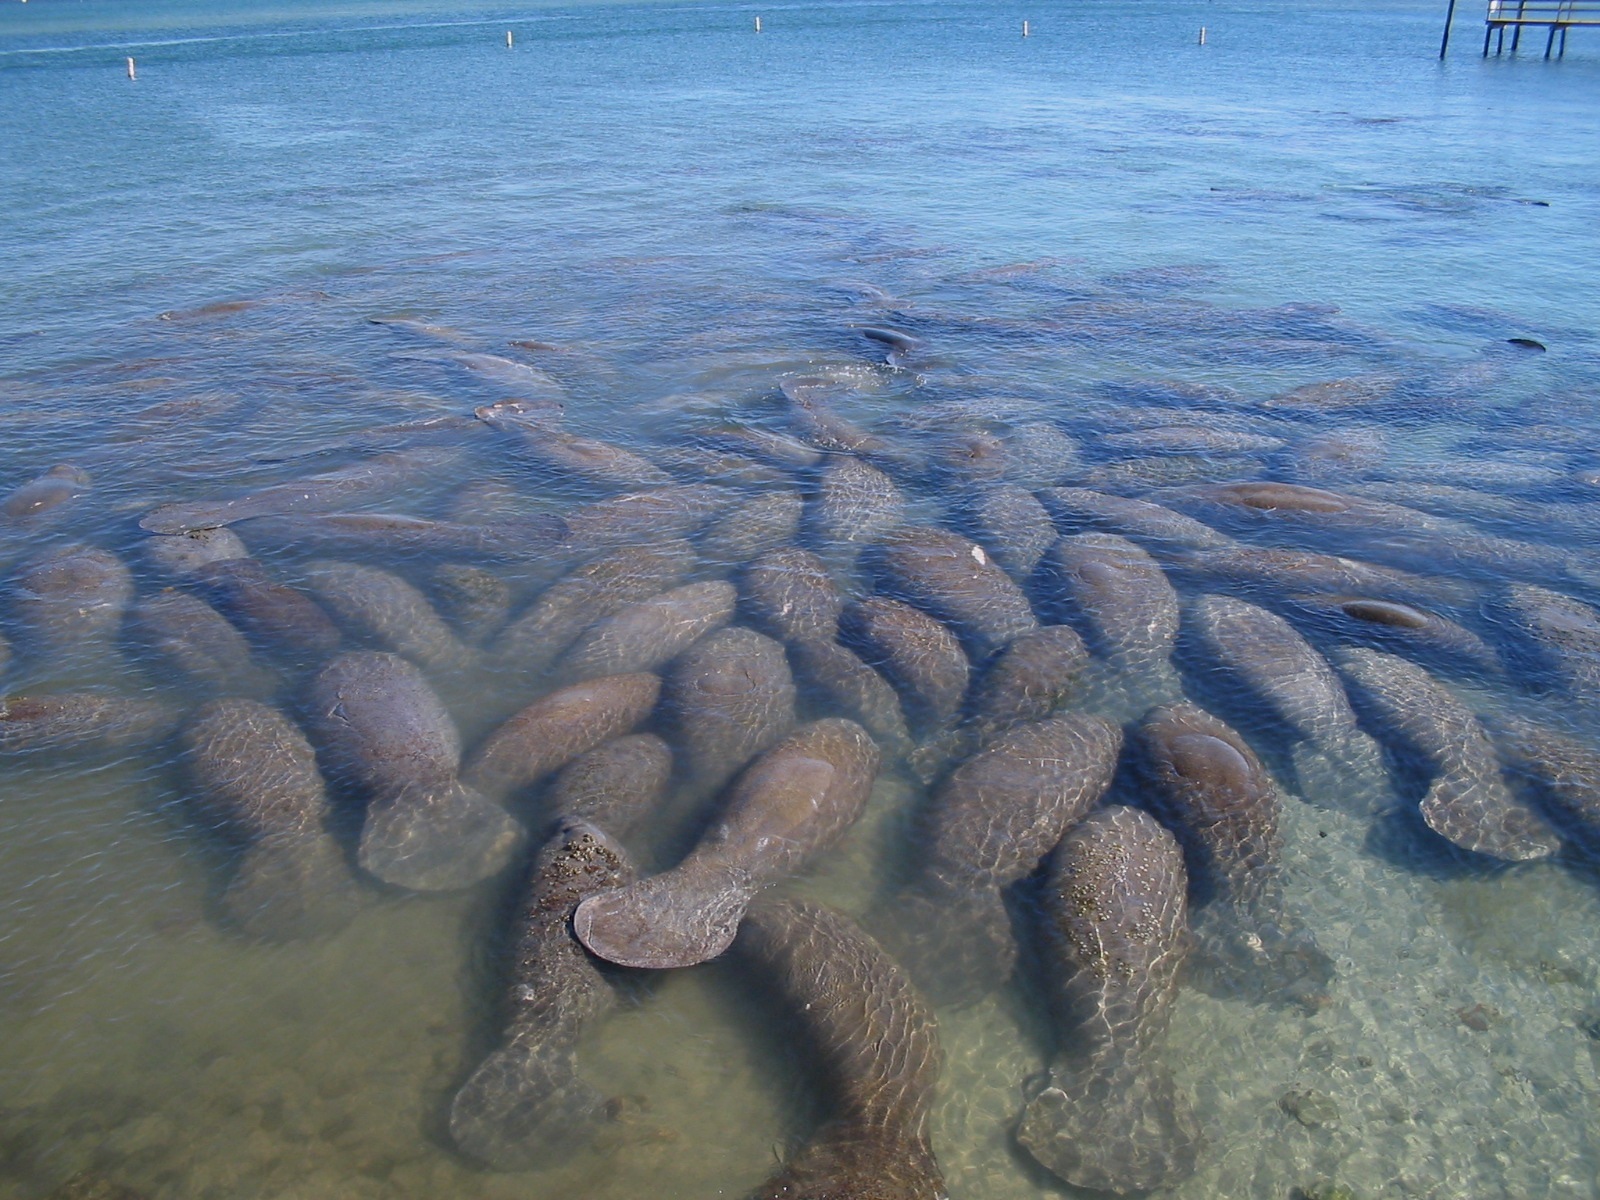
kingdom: Animalia
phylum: Chordata
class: Mammalia
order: Sirenia
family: Trichechidae
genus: Trichechus
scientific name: Trichechus manatus
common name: West indian manatee
